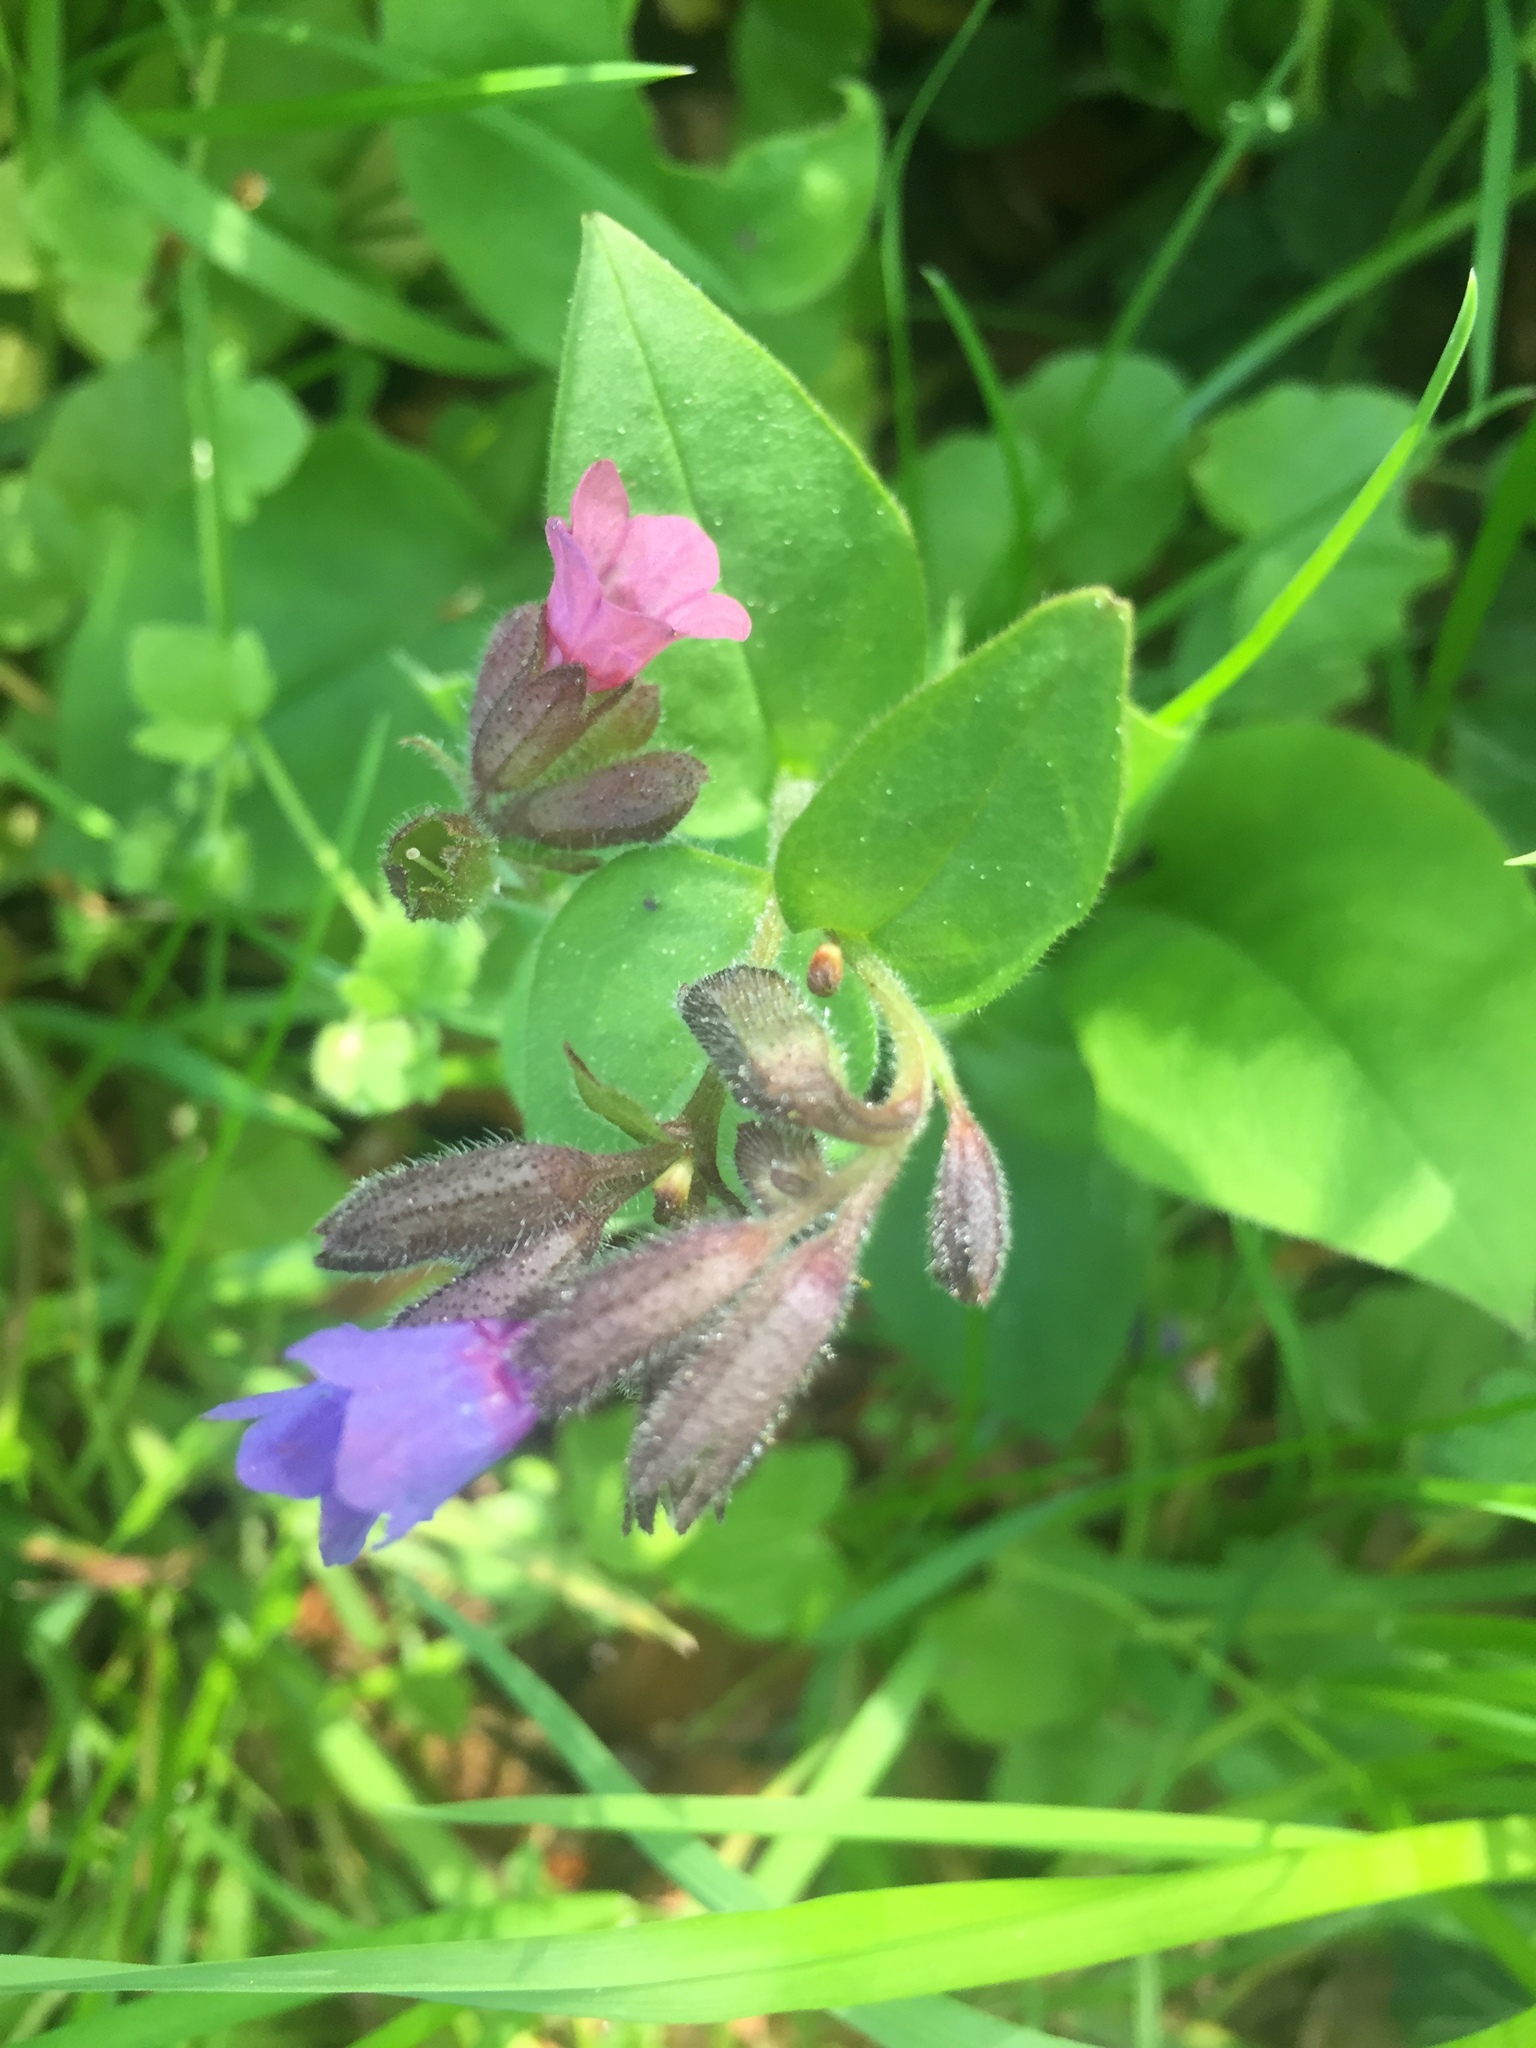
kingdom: Plantae
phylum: Tracheophyta
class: Magnoliopsida
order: Boraginales
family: Boraginaceae
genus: Pulmonaria
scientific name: Pulmonaria obscura
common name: Suffolk lungwort
